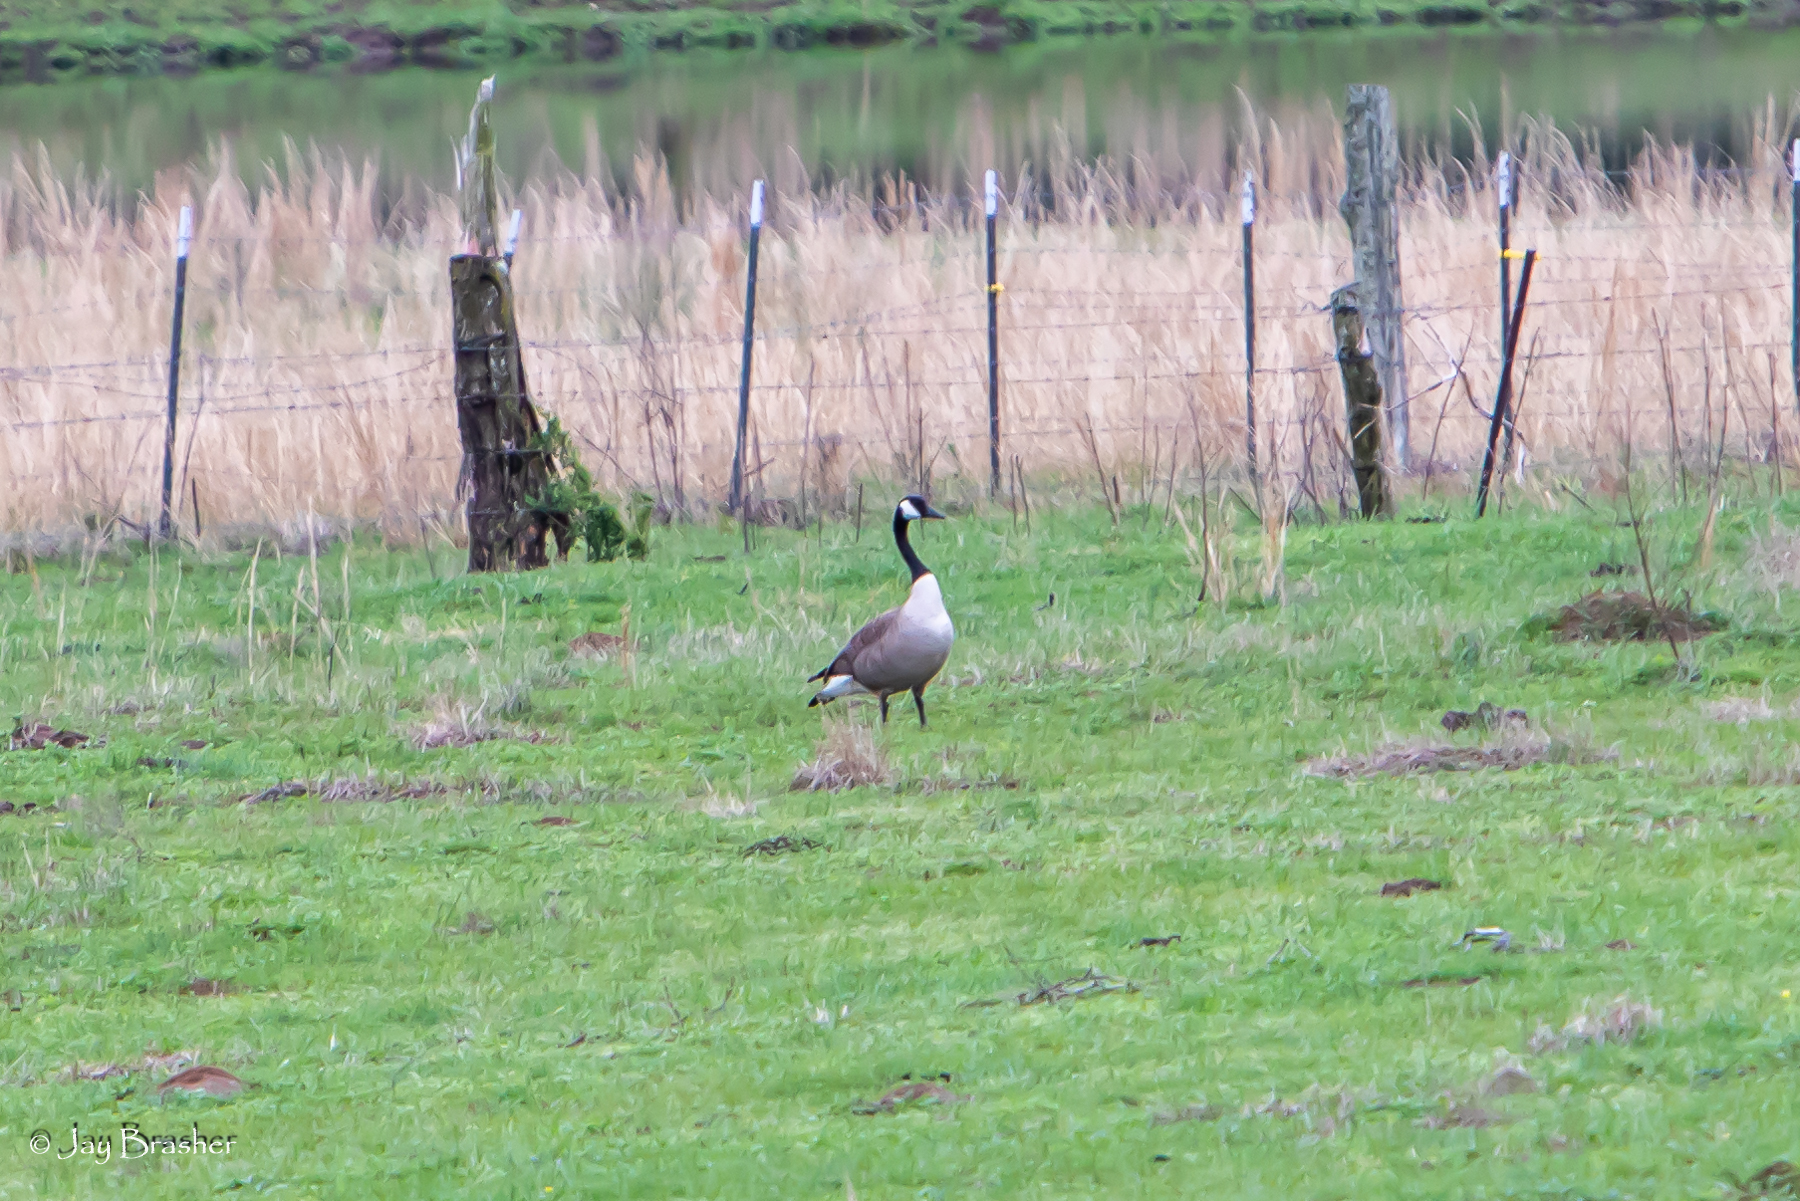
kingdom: Animalia
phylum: Chordata
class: Aves
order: Anseriformes
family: Anatidae
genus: Branta
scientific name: Branta canadensis
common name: Canada goose
